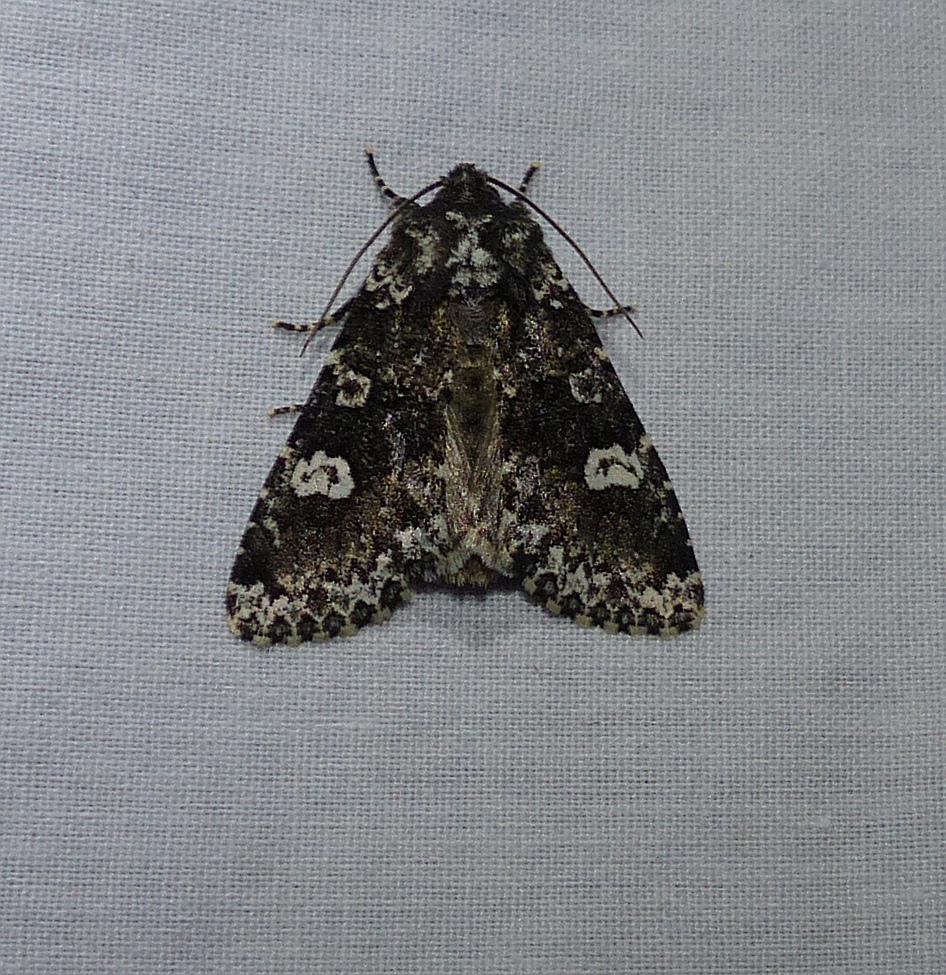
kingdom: Animalia
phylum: Arthropoda
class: Insecta
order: Lepidoptera
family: Noctuidae
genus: Melanchra
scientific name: Melanchra adjuncta
